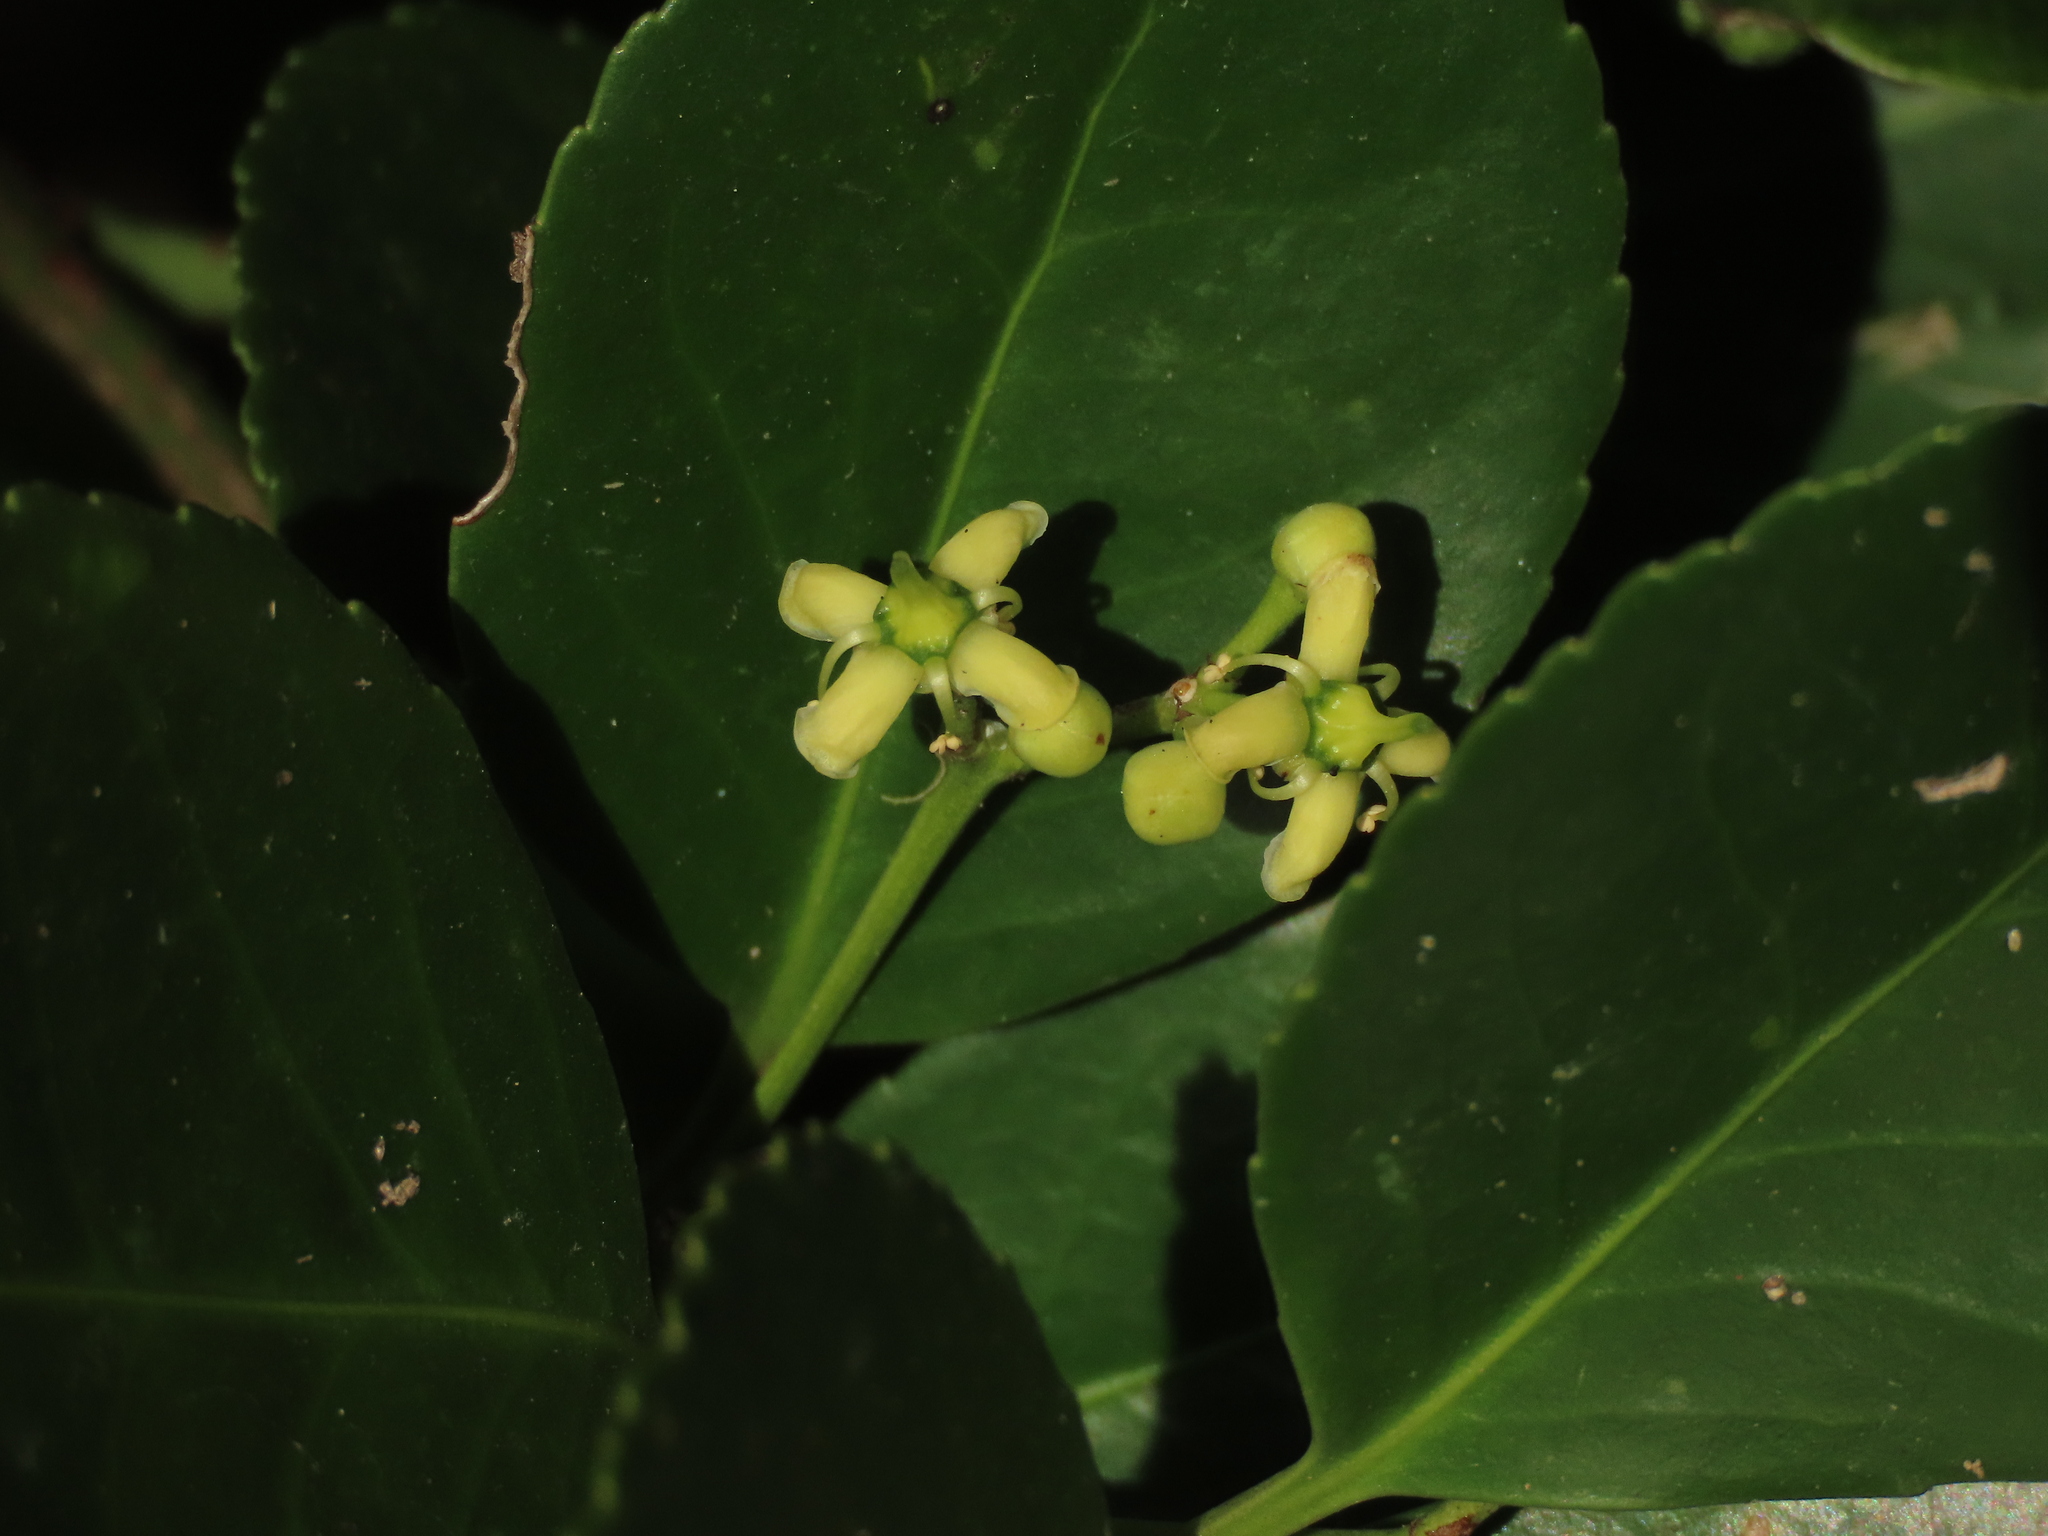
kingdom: Plantae
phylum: Tracheophyta
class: Magnoliopsida
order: Celastrales
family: Celastraceae
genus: Euonymus
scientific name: Euonymus japonicus
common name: Japanese spindletree
